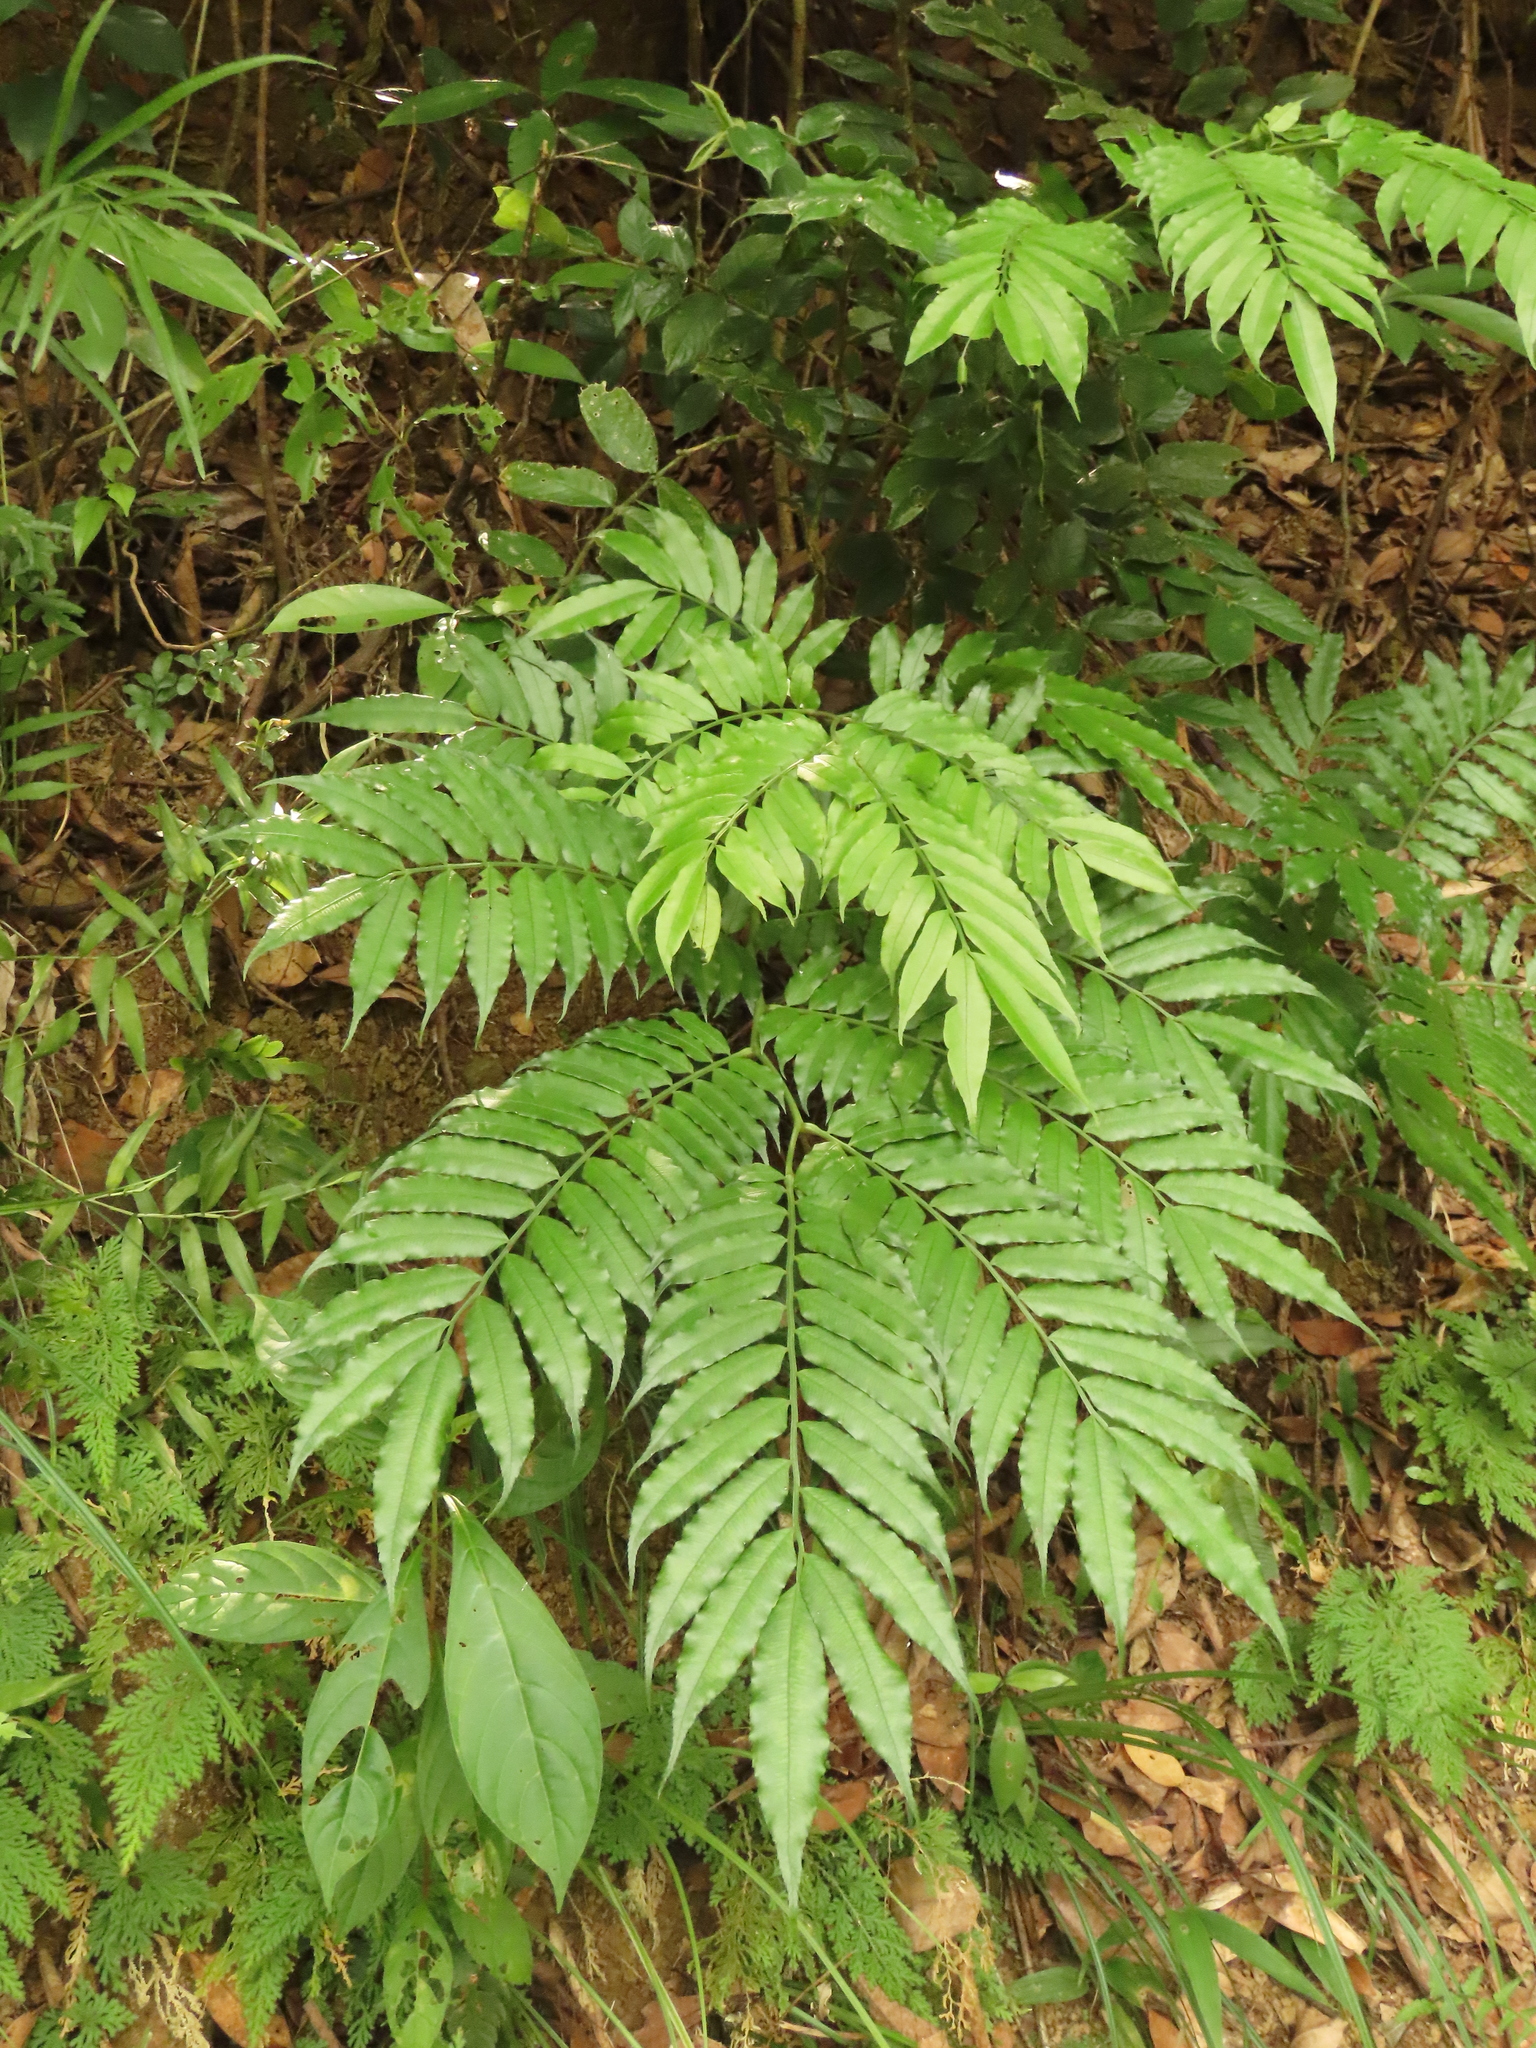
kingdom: Plantae
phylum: Tracheophyta
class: Polypodiopsida
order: Marattiales
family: Marattiaceae
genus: Angiopteris
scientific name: Angiopteris lygodiifolia
